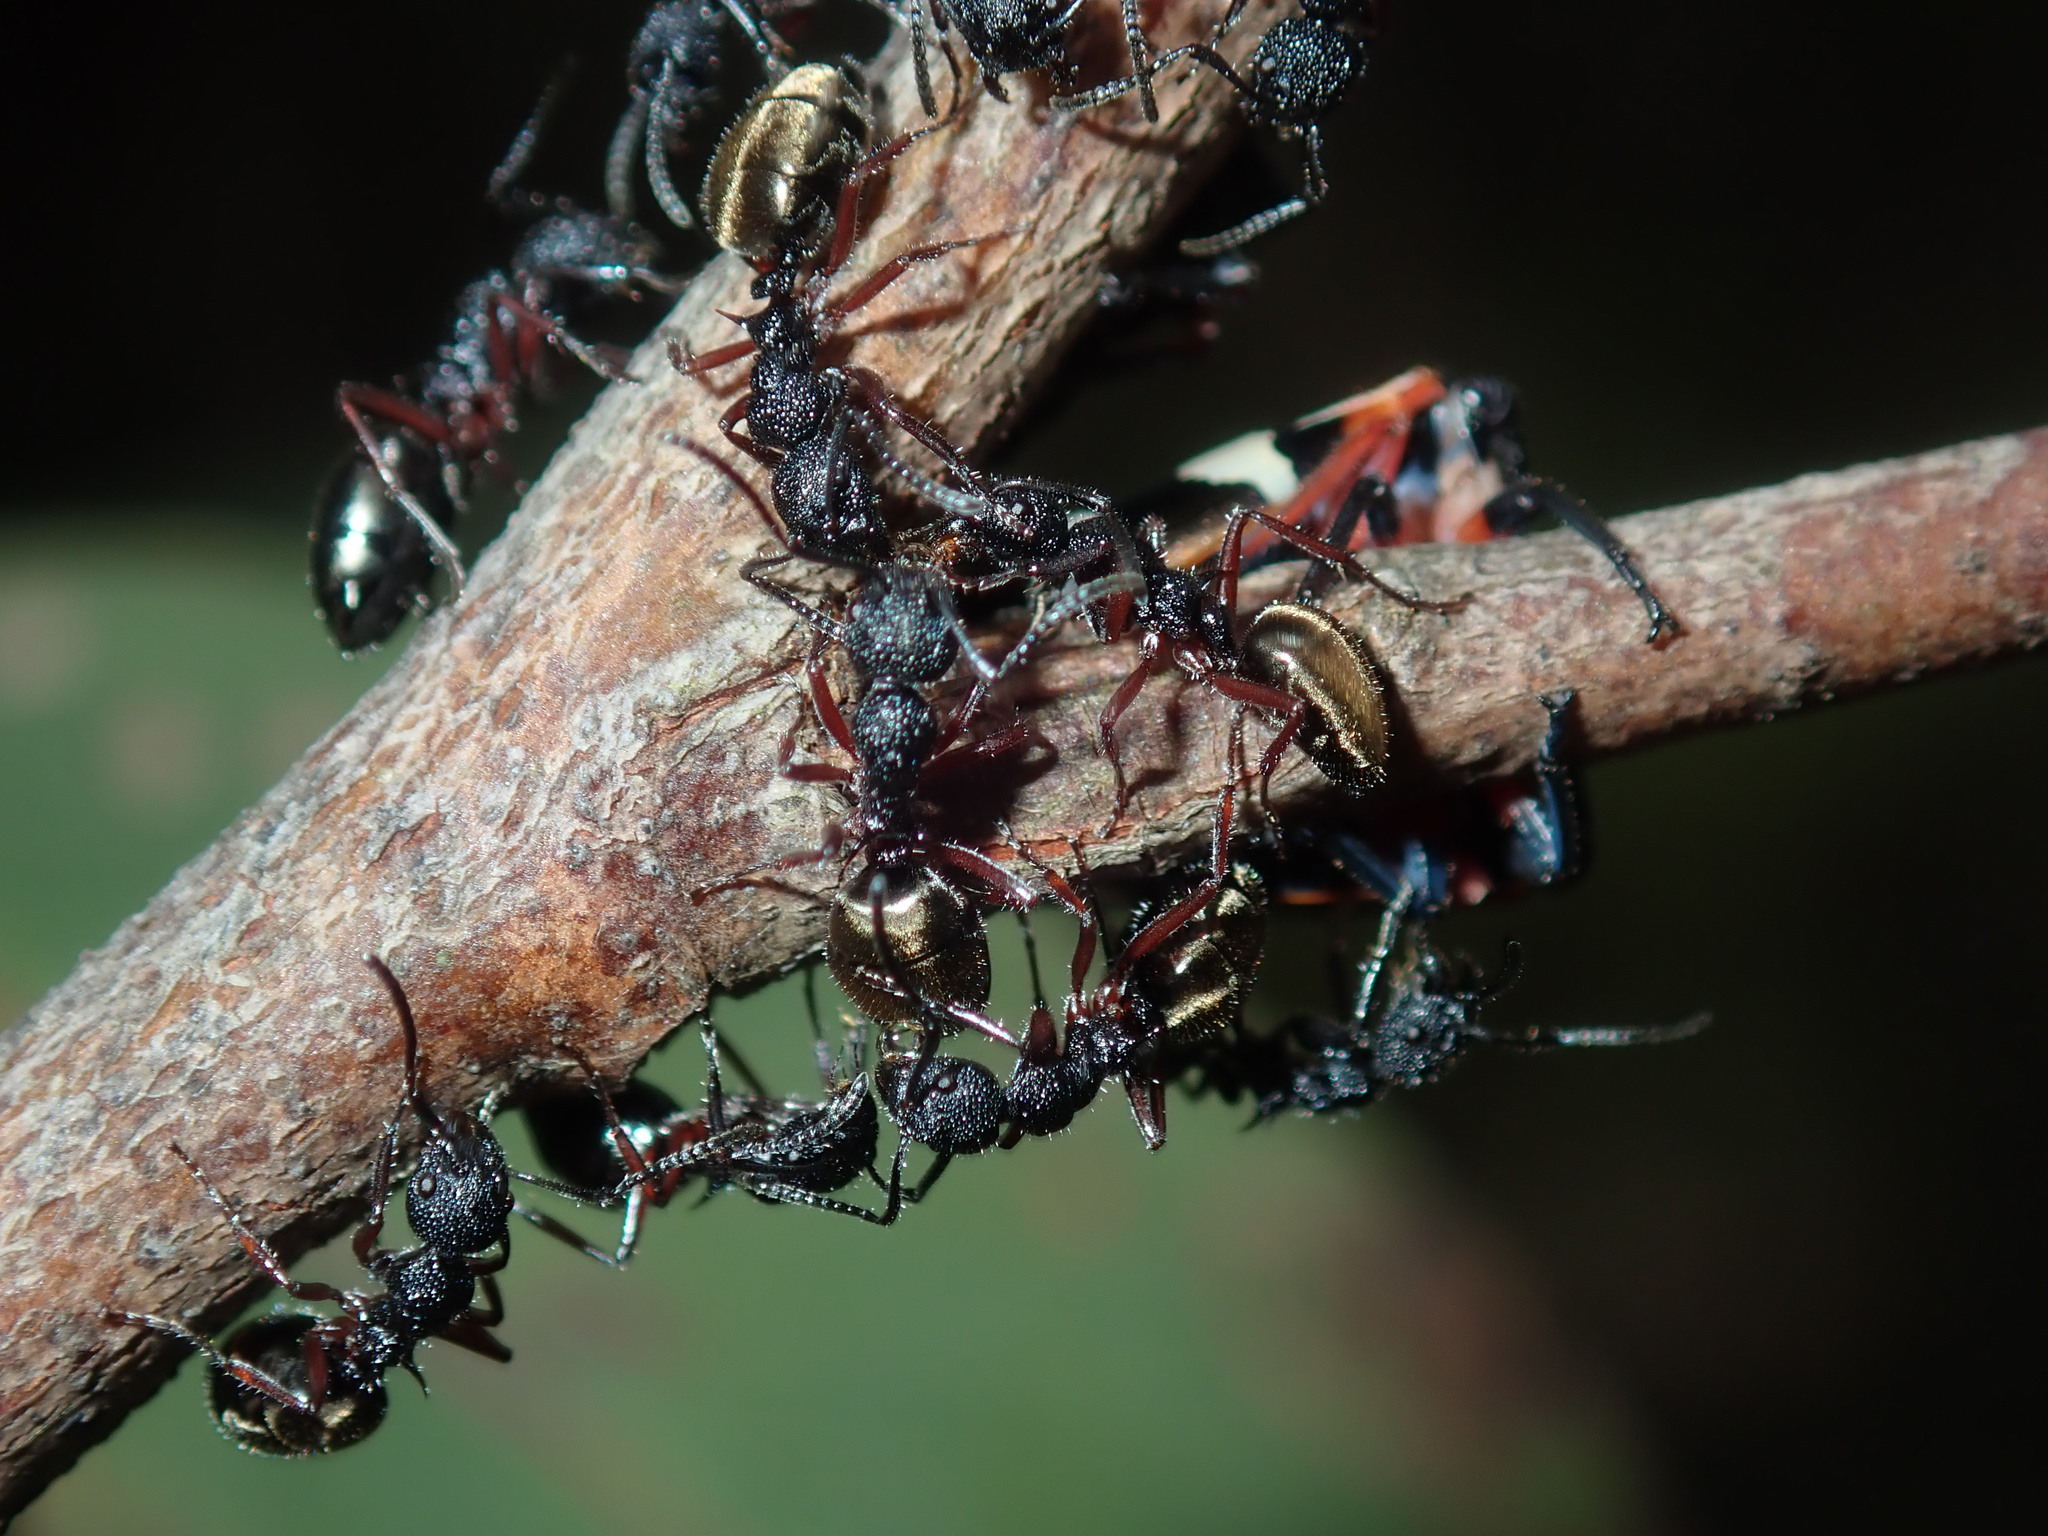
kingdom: Animalia
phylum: Arthropoda
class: Insecta
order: Hymenoptera
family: Formicidae
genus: Dolichoderus
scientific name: Dolichoderus scabridus
